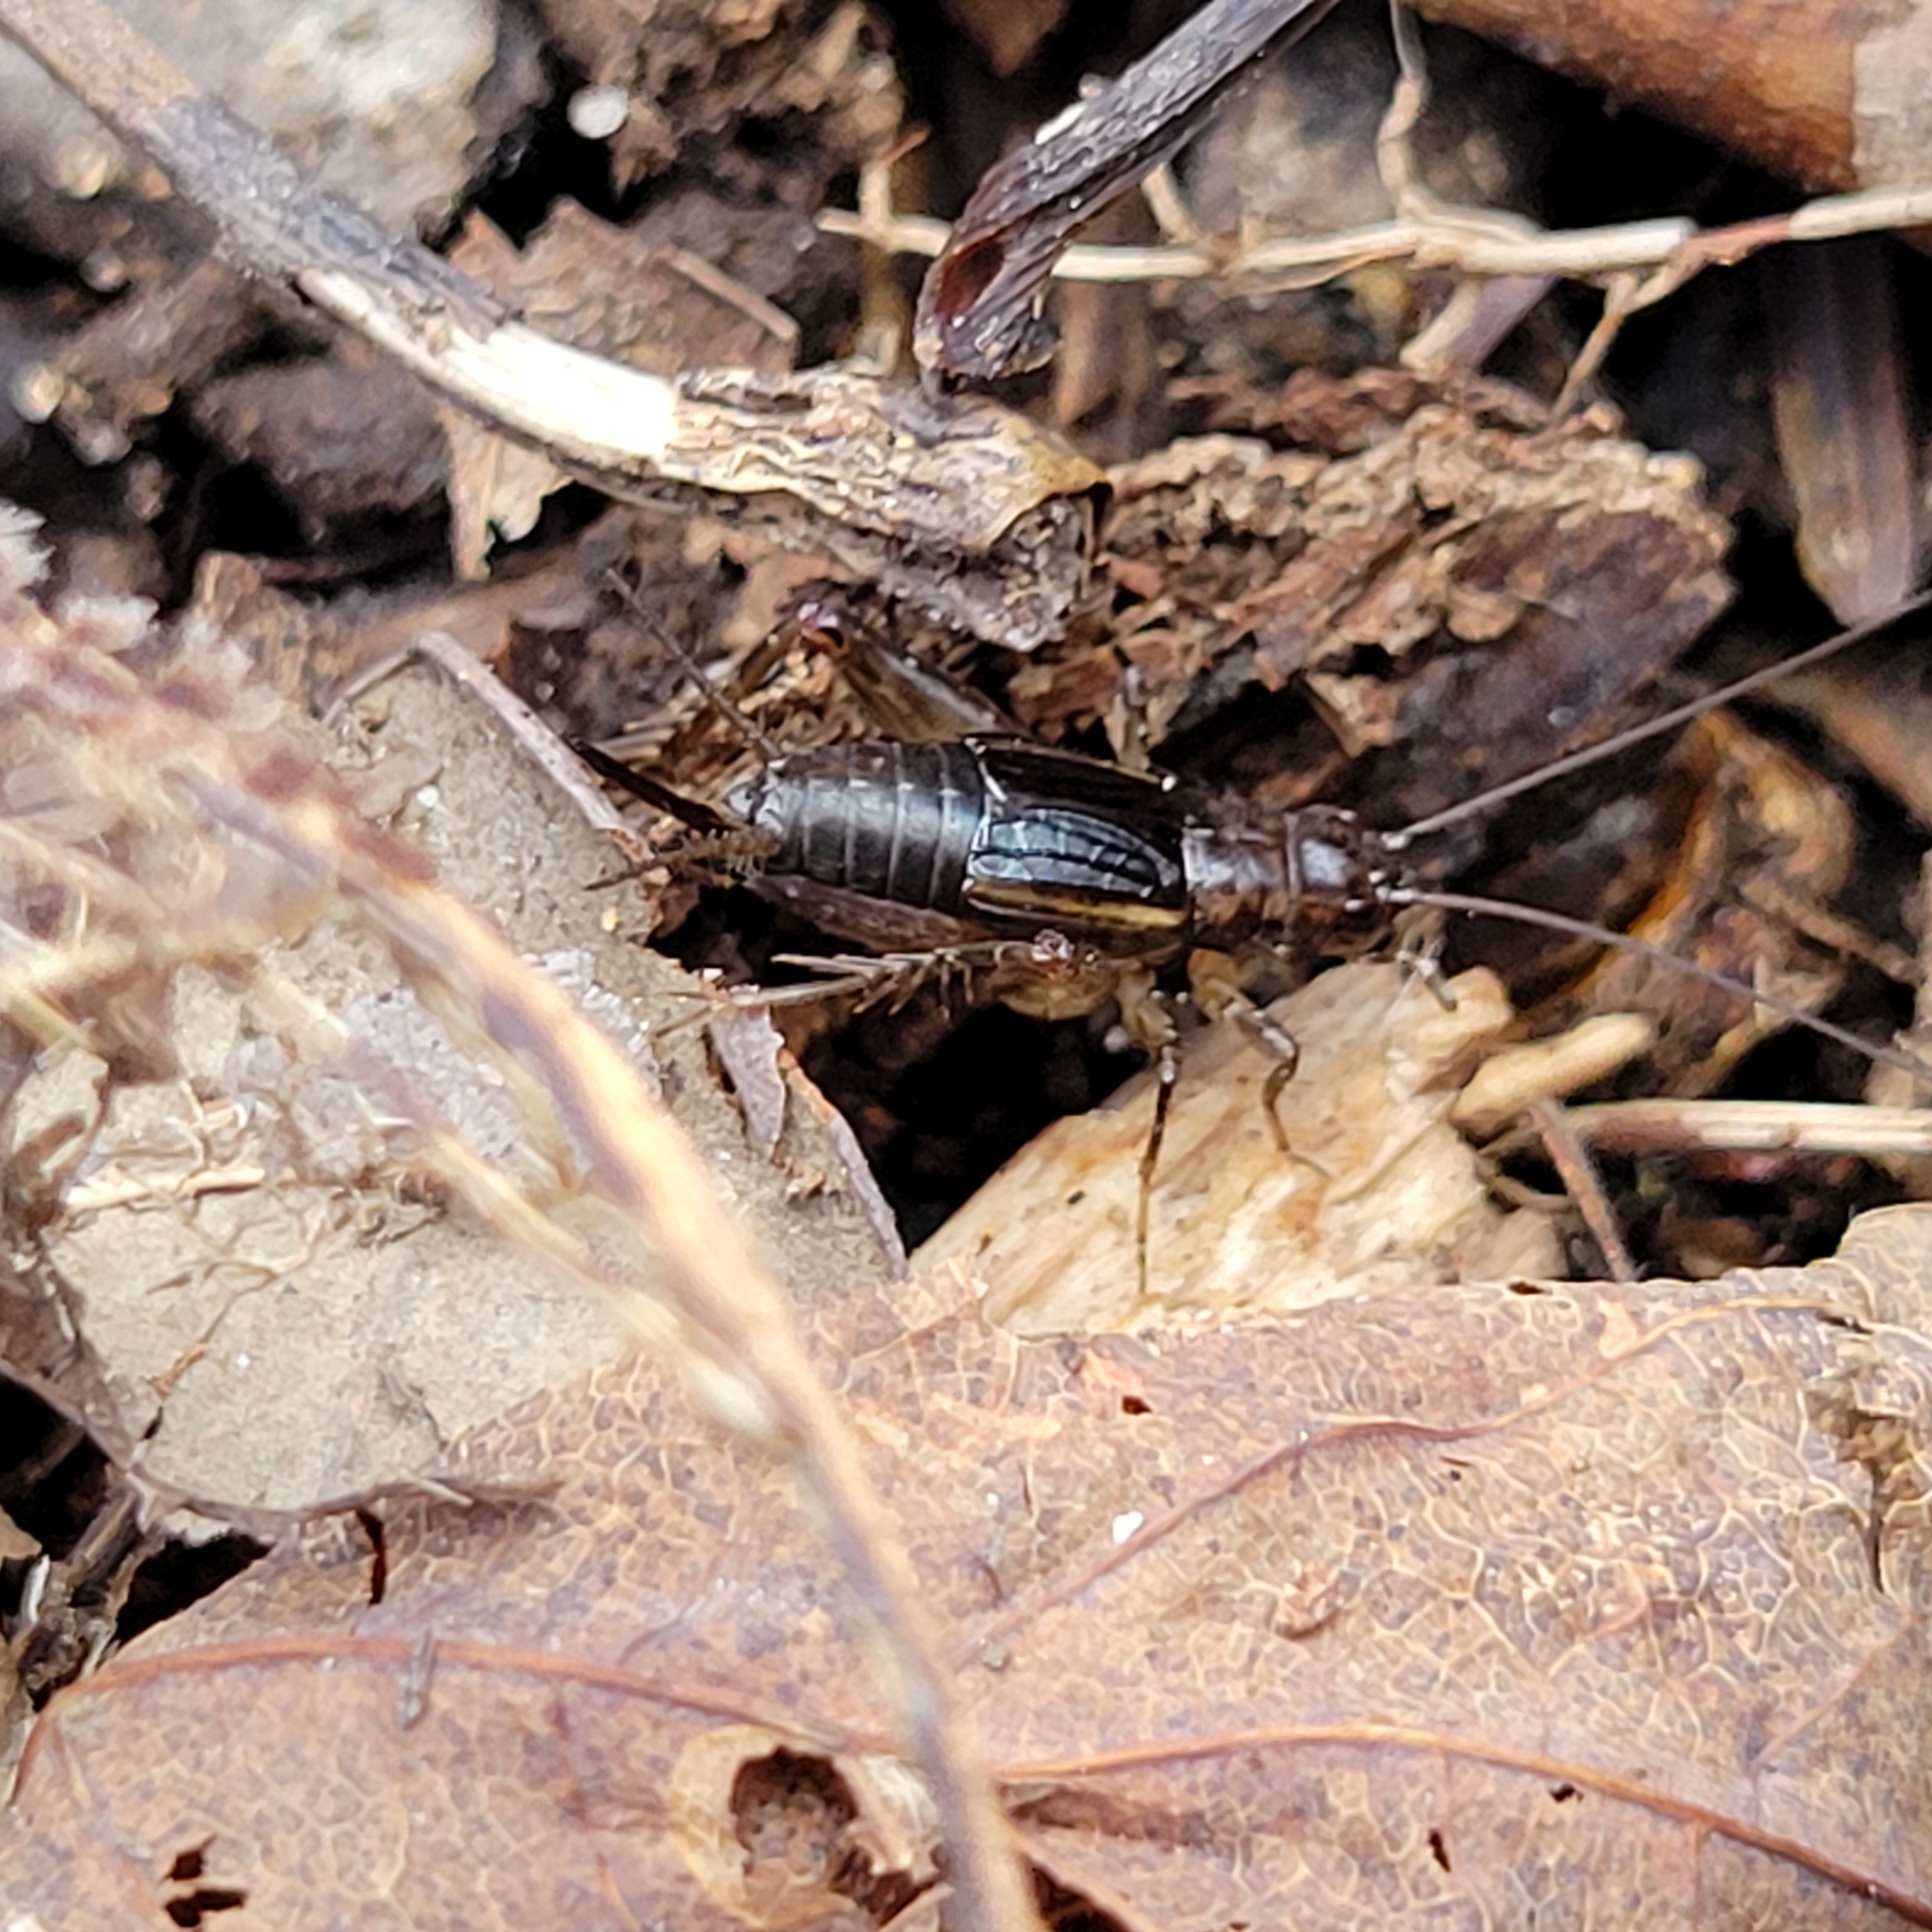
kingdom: Animalia
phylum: Arthropoda
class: Insecta
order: Orthoptera
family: Trigonidiidae
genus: Eunemobius
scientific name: Eunemobius carolinus
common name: Carolina ground cricket
